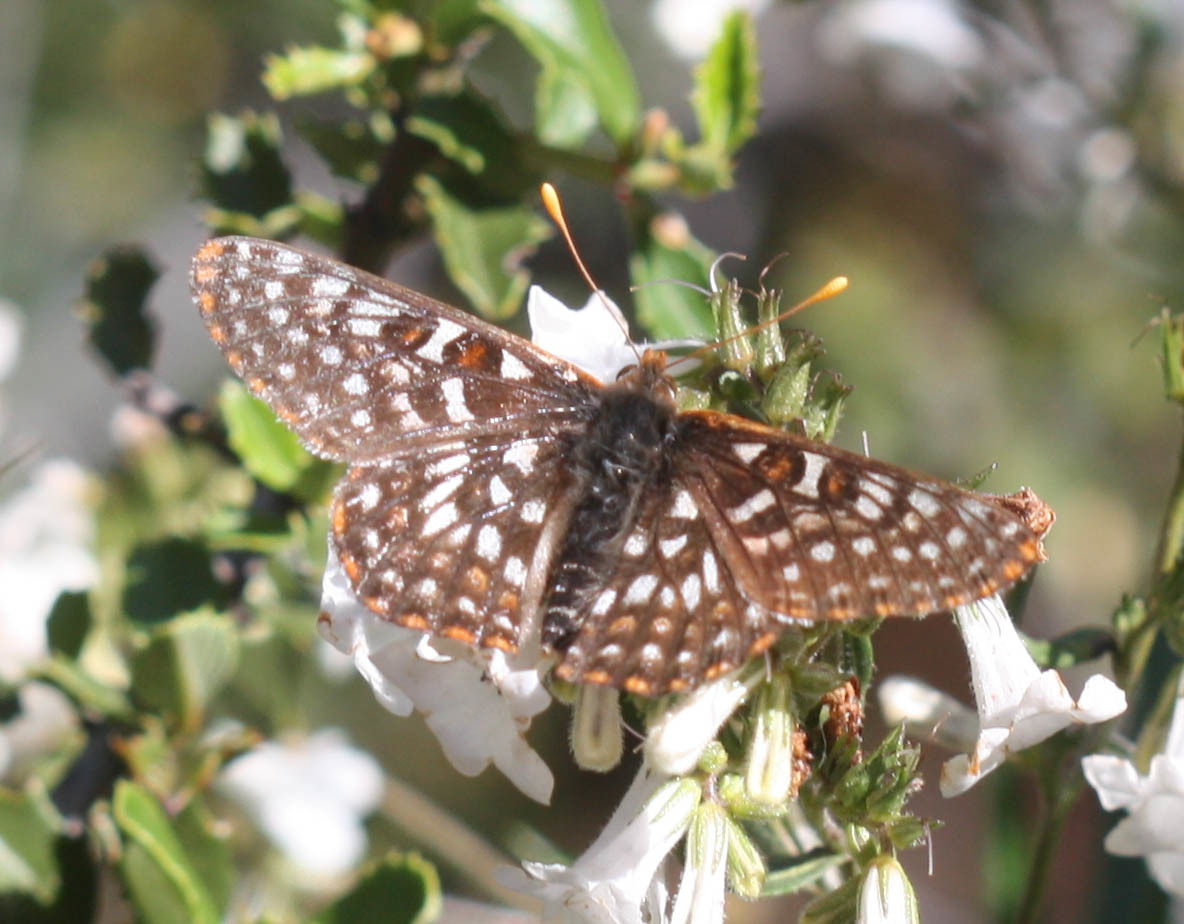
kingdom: Animalia
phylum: Arthropoda
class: Insecta
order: Lepidoptera
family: Nymphalidae
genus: Occidryas
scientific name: Occidryas editha
